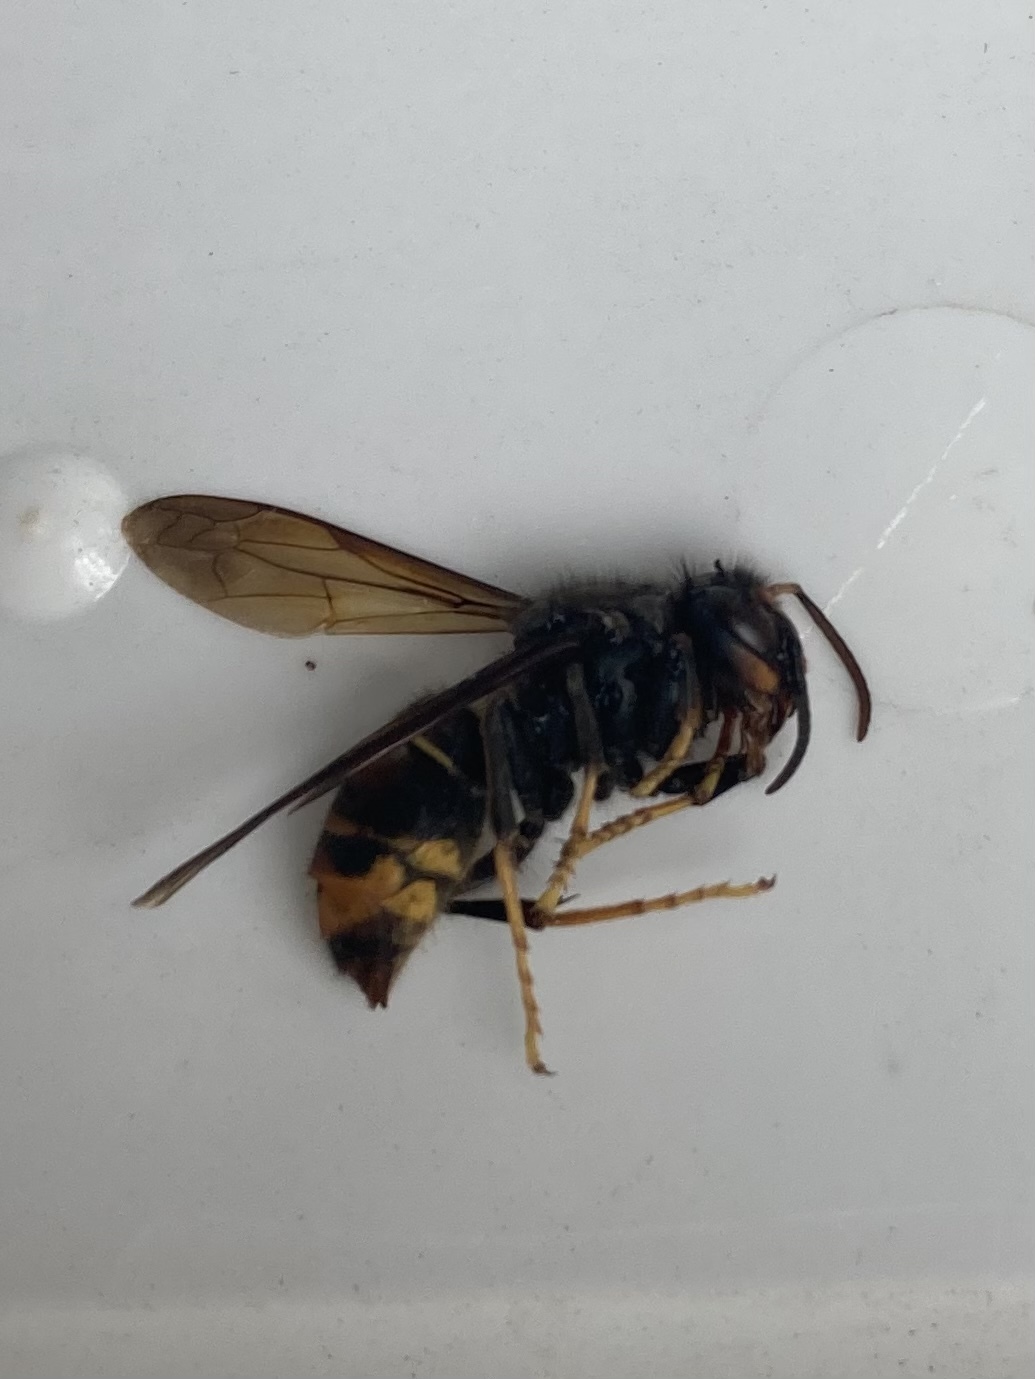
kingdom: Animalia
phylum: Arthropoda
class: Insecta
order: Hymenoptera
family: Vespidae
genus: Vespa
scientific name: Vespa velutina
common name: Asian hornet
